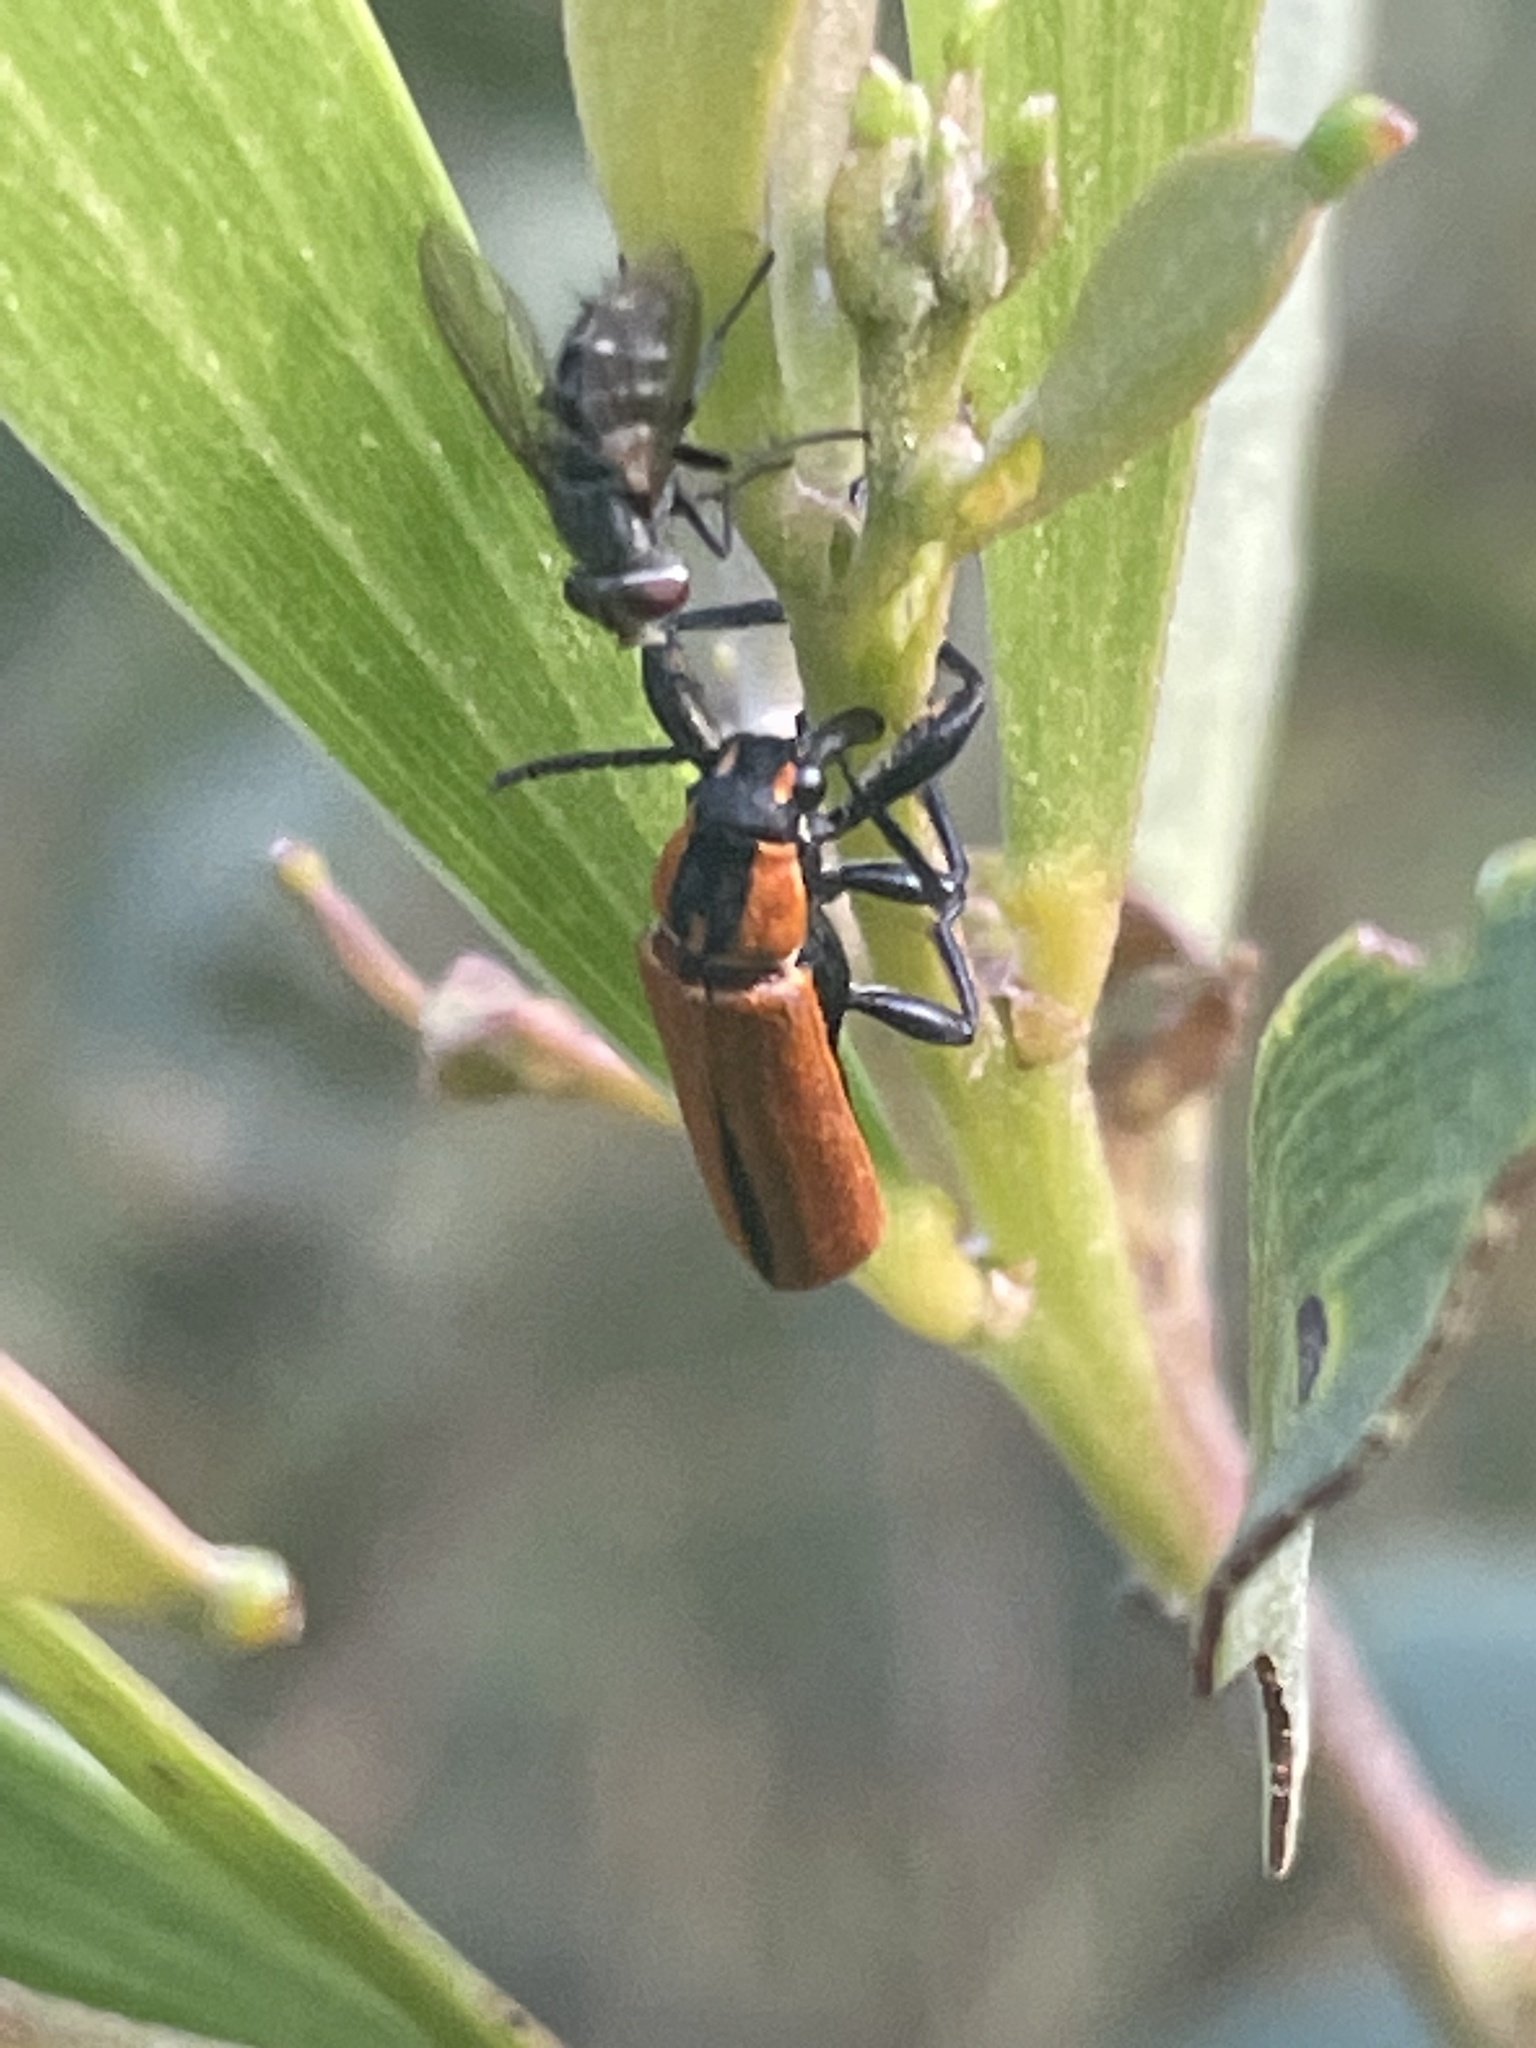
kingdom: Animalia
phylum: Arthropoda
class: Insecta
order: Coleoptera
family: Belidae
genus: Rhinotia
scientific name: Rhinotia venusta
